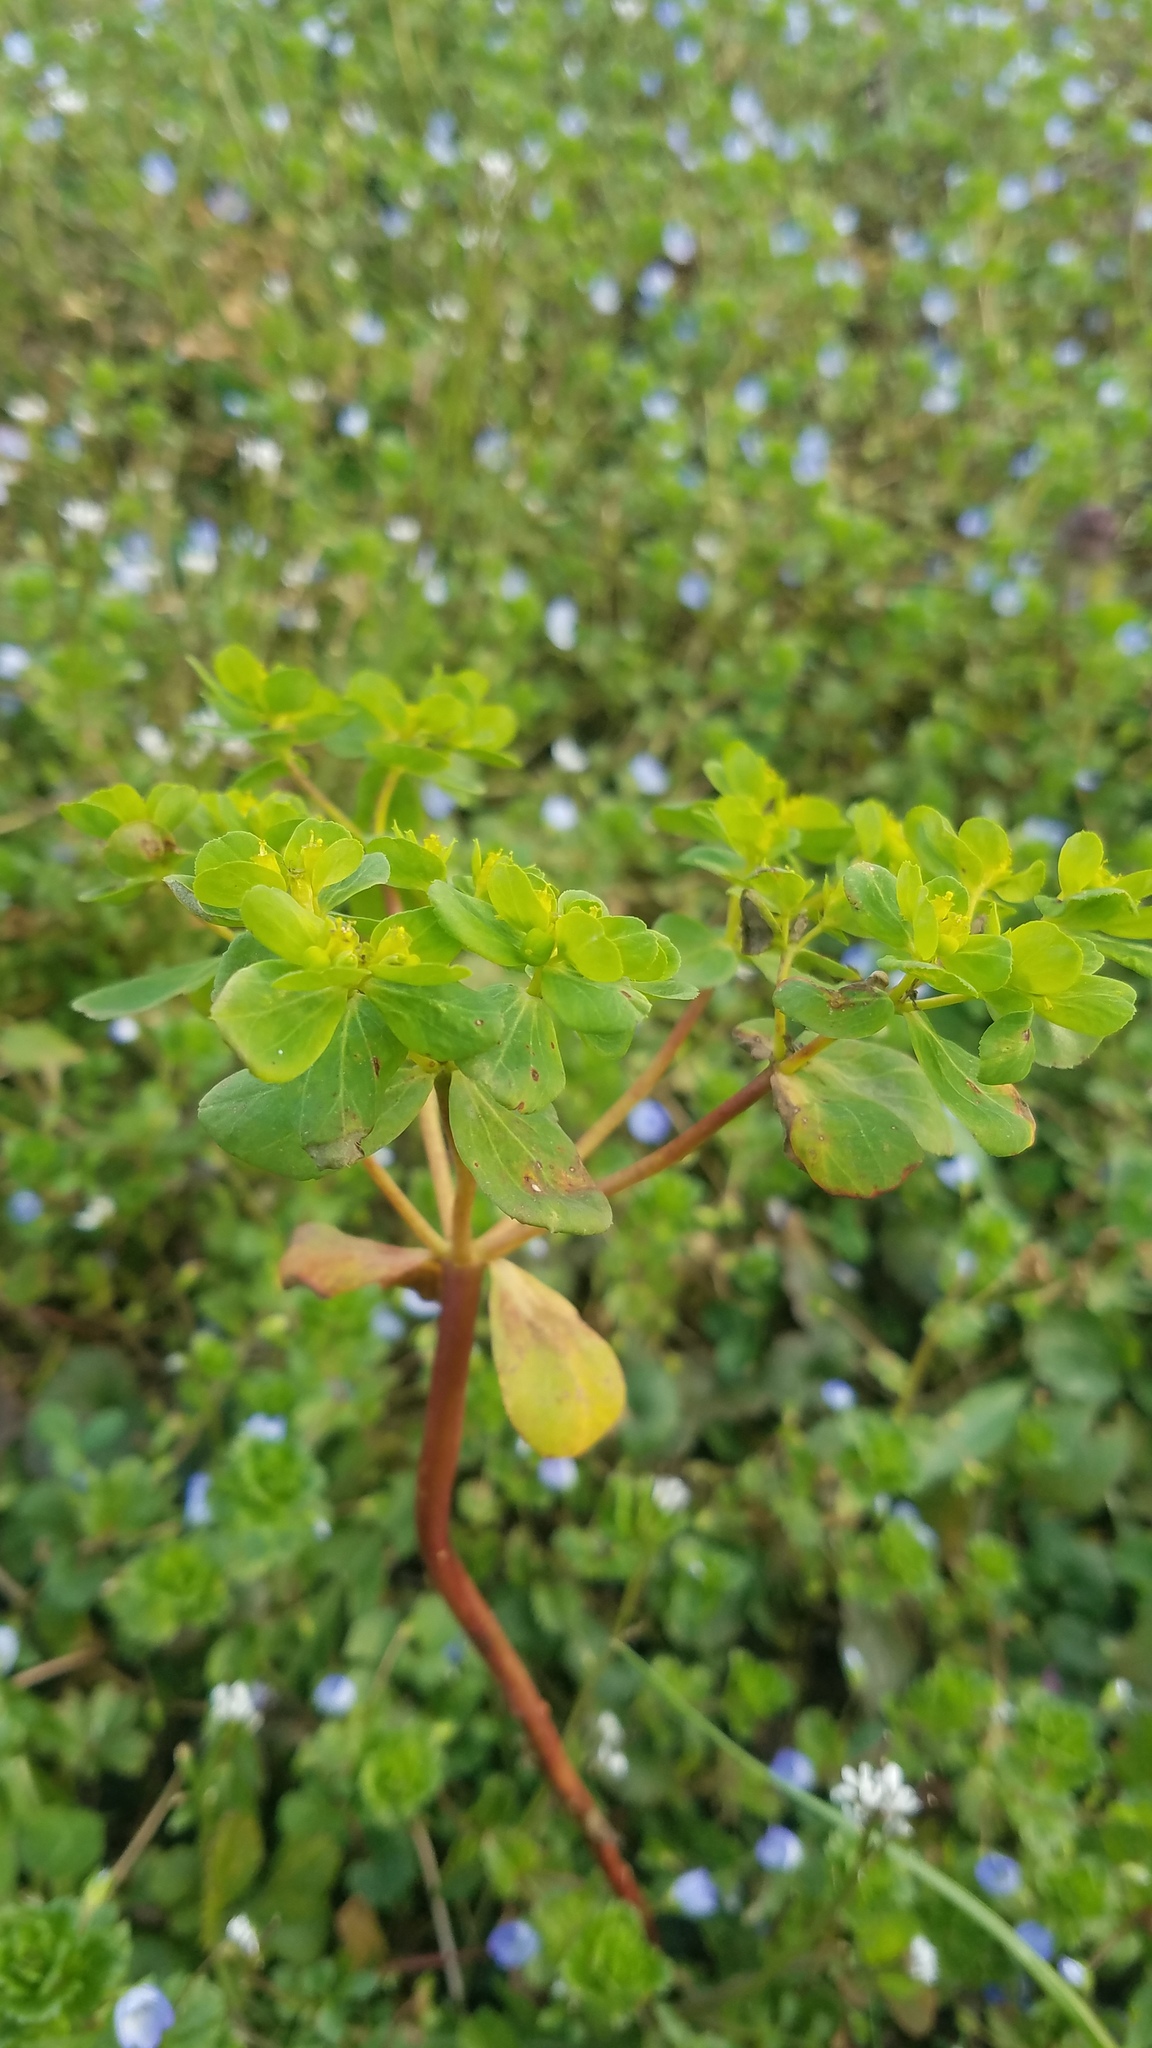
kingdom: Plantae
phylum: Tracheophyta
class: Magnoliopsida
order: Malpighiales
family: Euphorbiaceae
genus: Euphorbia
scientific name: Euphorbia helioscopia
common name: Sun spurge
